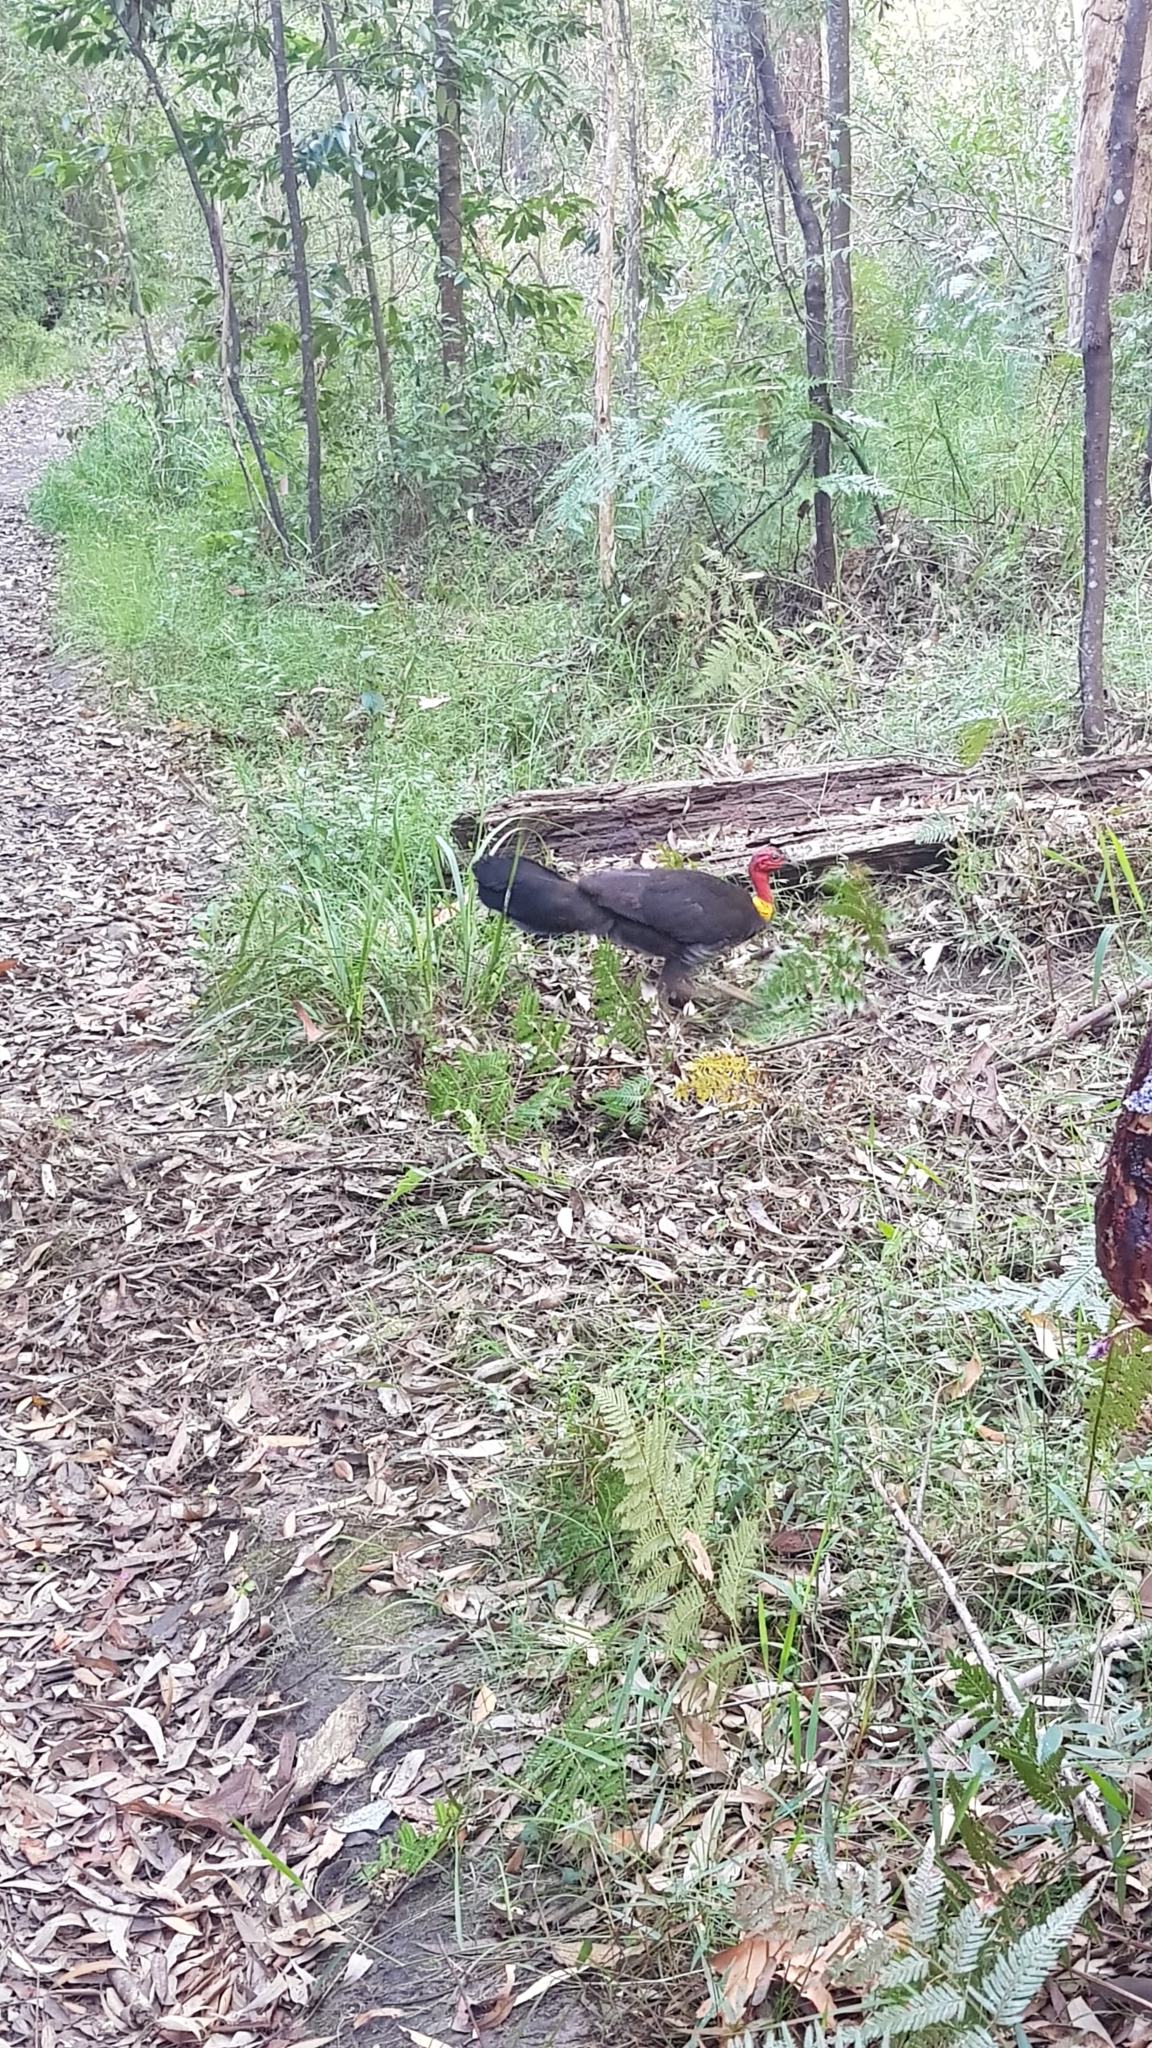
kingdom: Animalia
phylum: Chordata
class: Aves
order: Galliformes
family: Megapodiidae
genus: Alectura
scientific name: Alectura lathami
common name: Australian brushturkey
